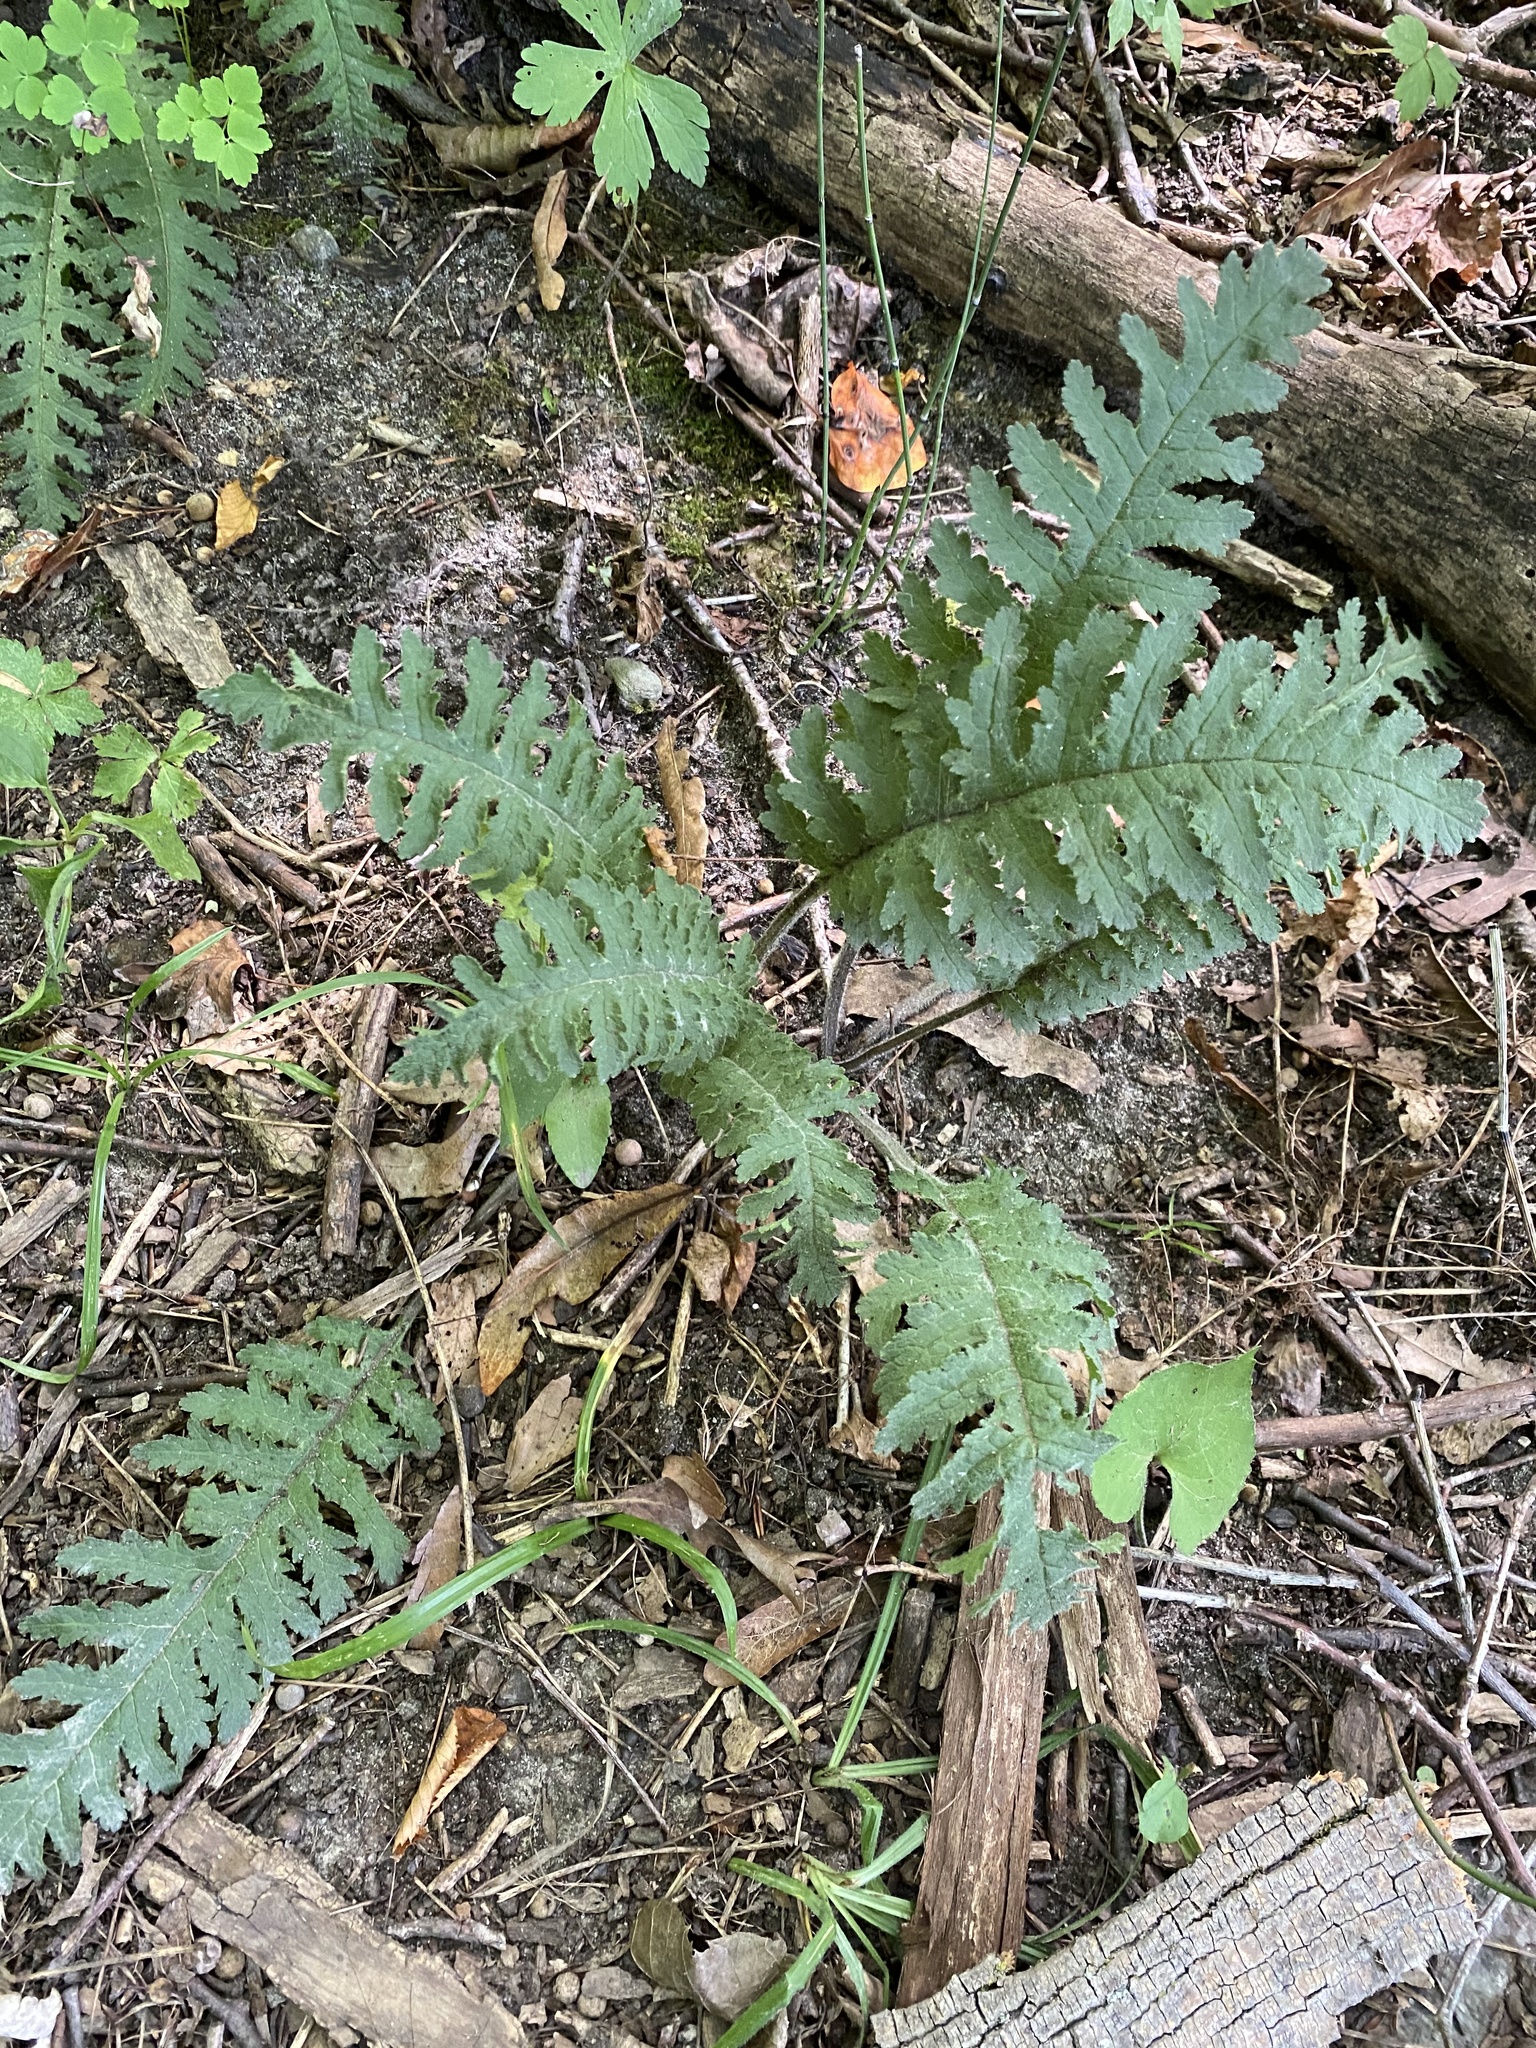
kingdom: Plantae
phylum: Tracheophyta
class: Magnoliopsida
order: Lamiales
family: Orobanchaceae
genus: Pedicularis
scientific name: Pedicularis canadensis
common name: Early lousewort
